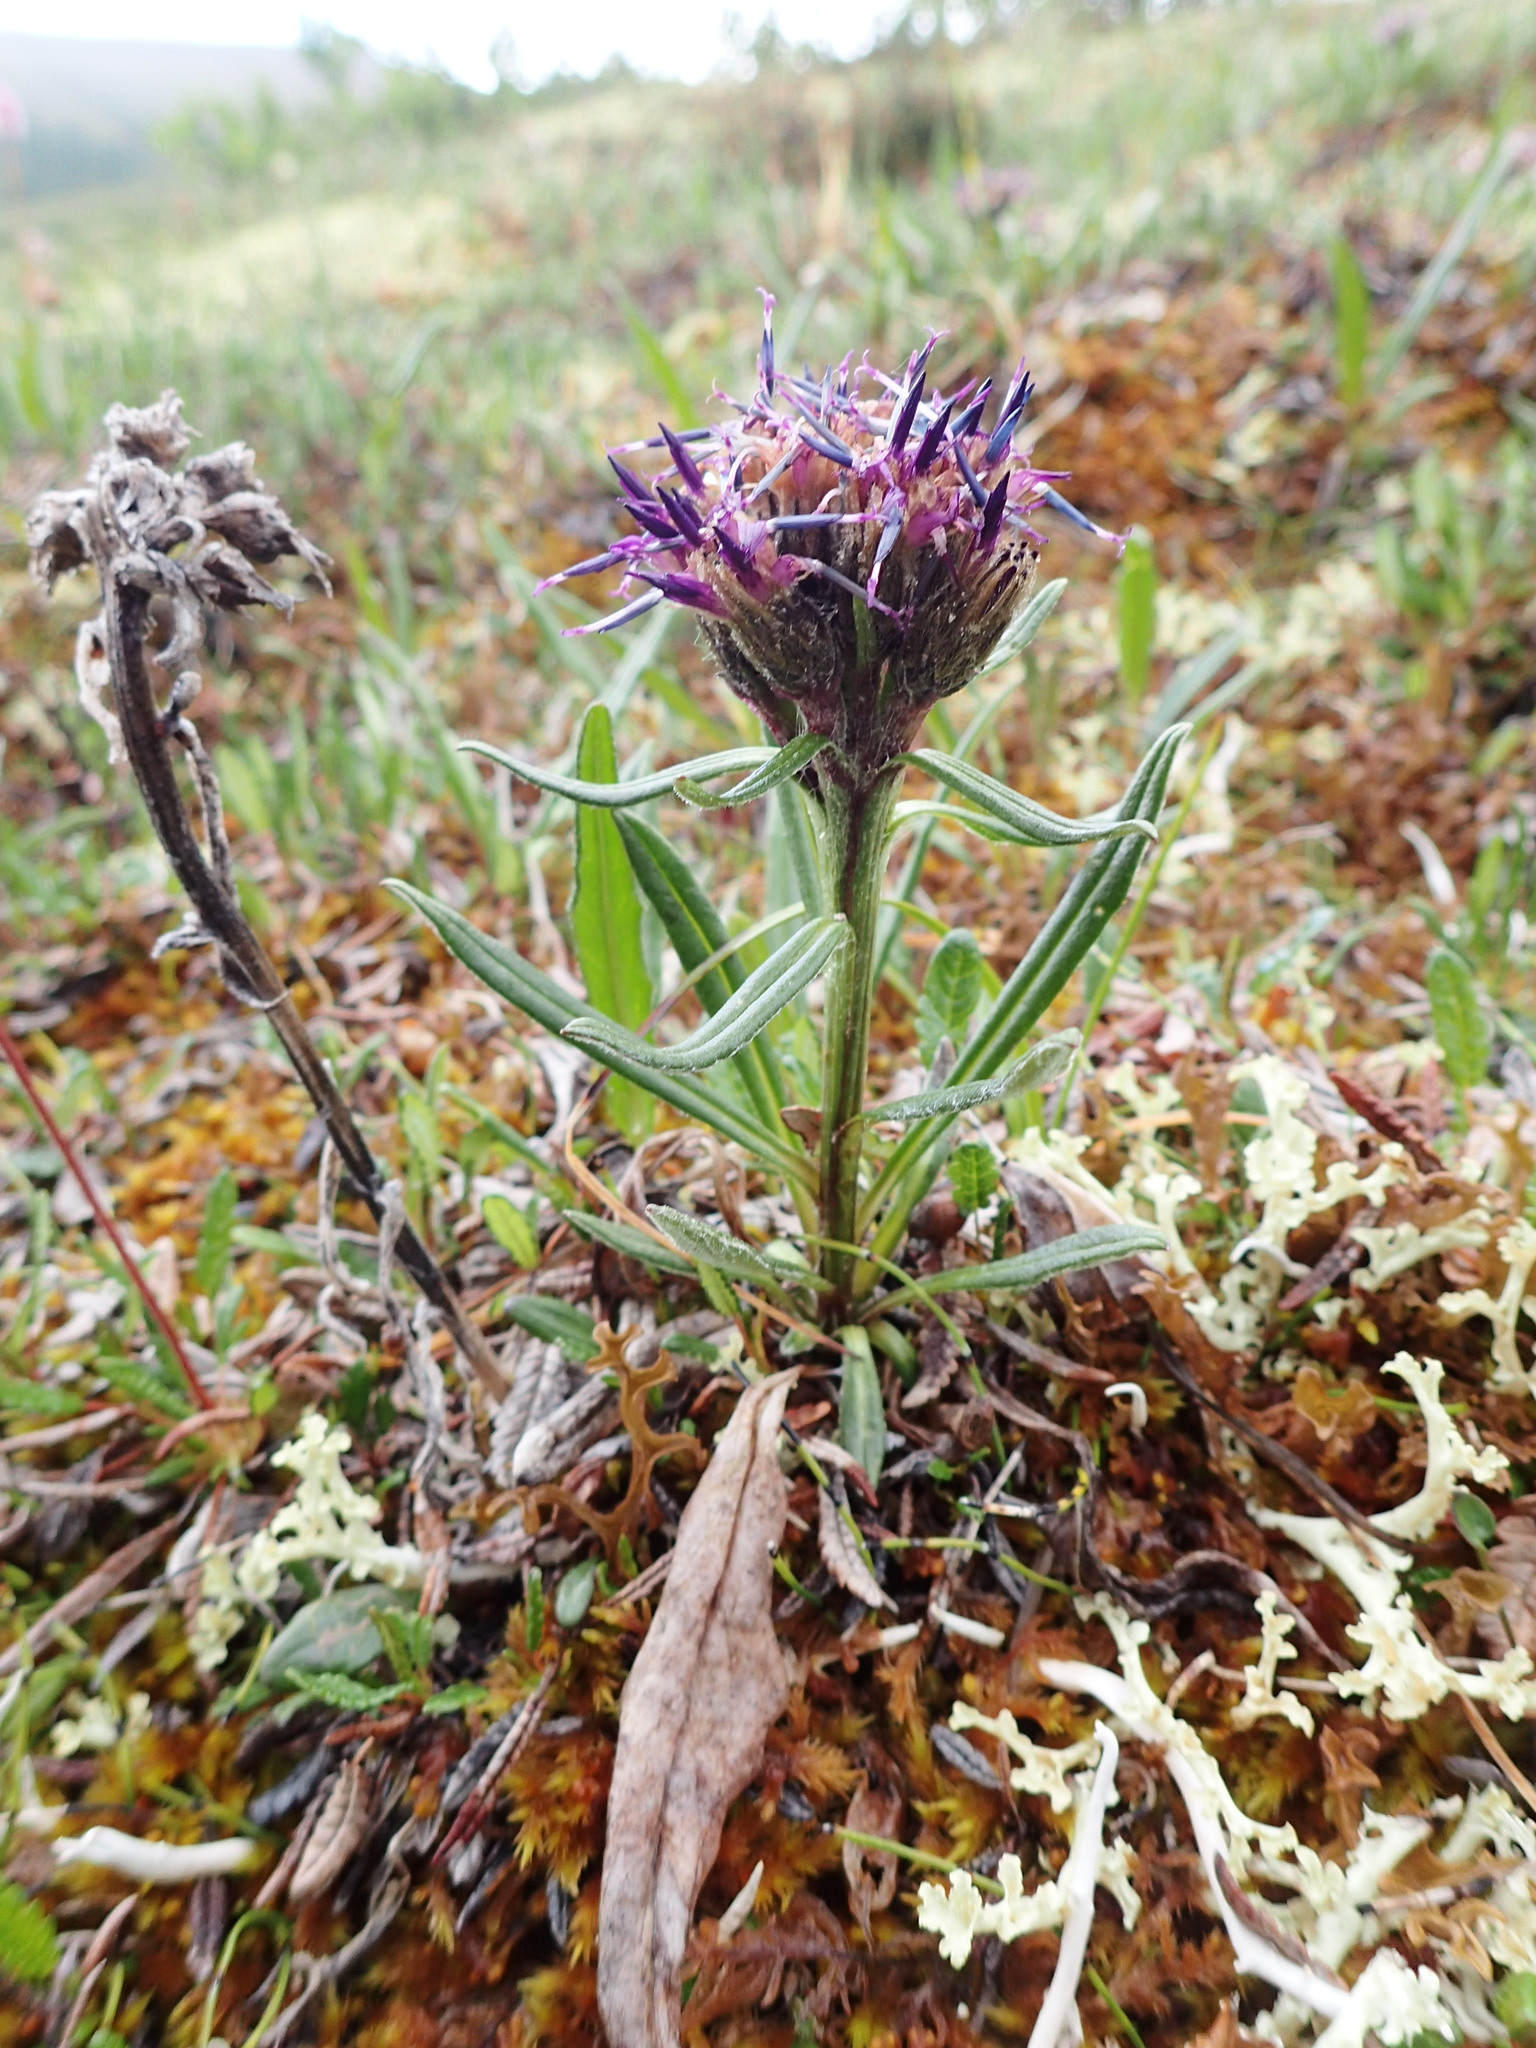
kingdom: Plantae
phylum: Tracheophyta
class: Magnoliopsida
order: Asterales
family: Asteraceae
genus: Saussurea
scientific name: Saussurea angustifolia
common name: Common saussurea
